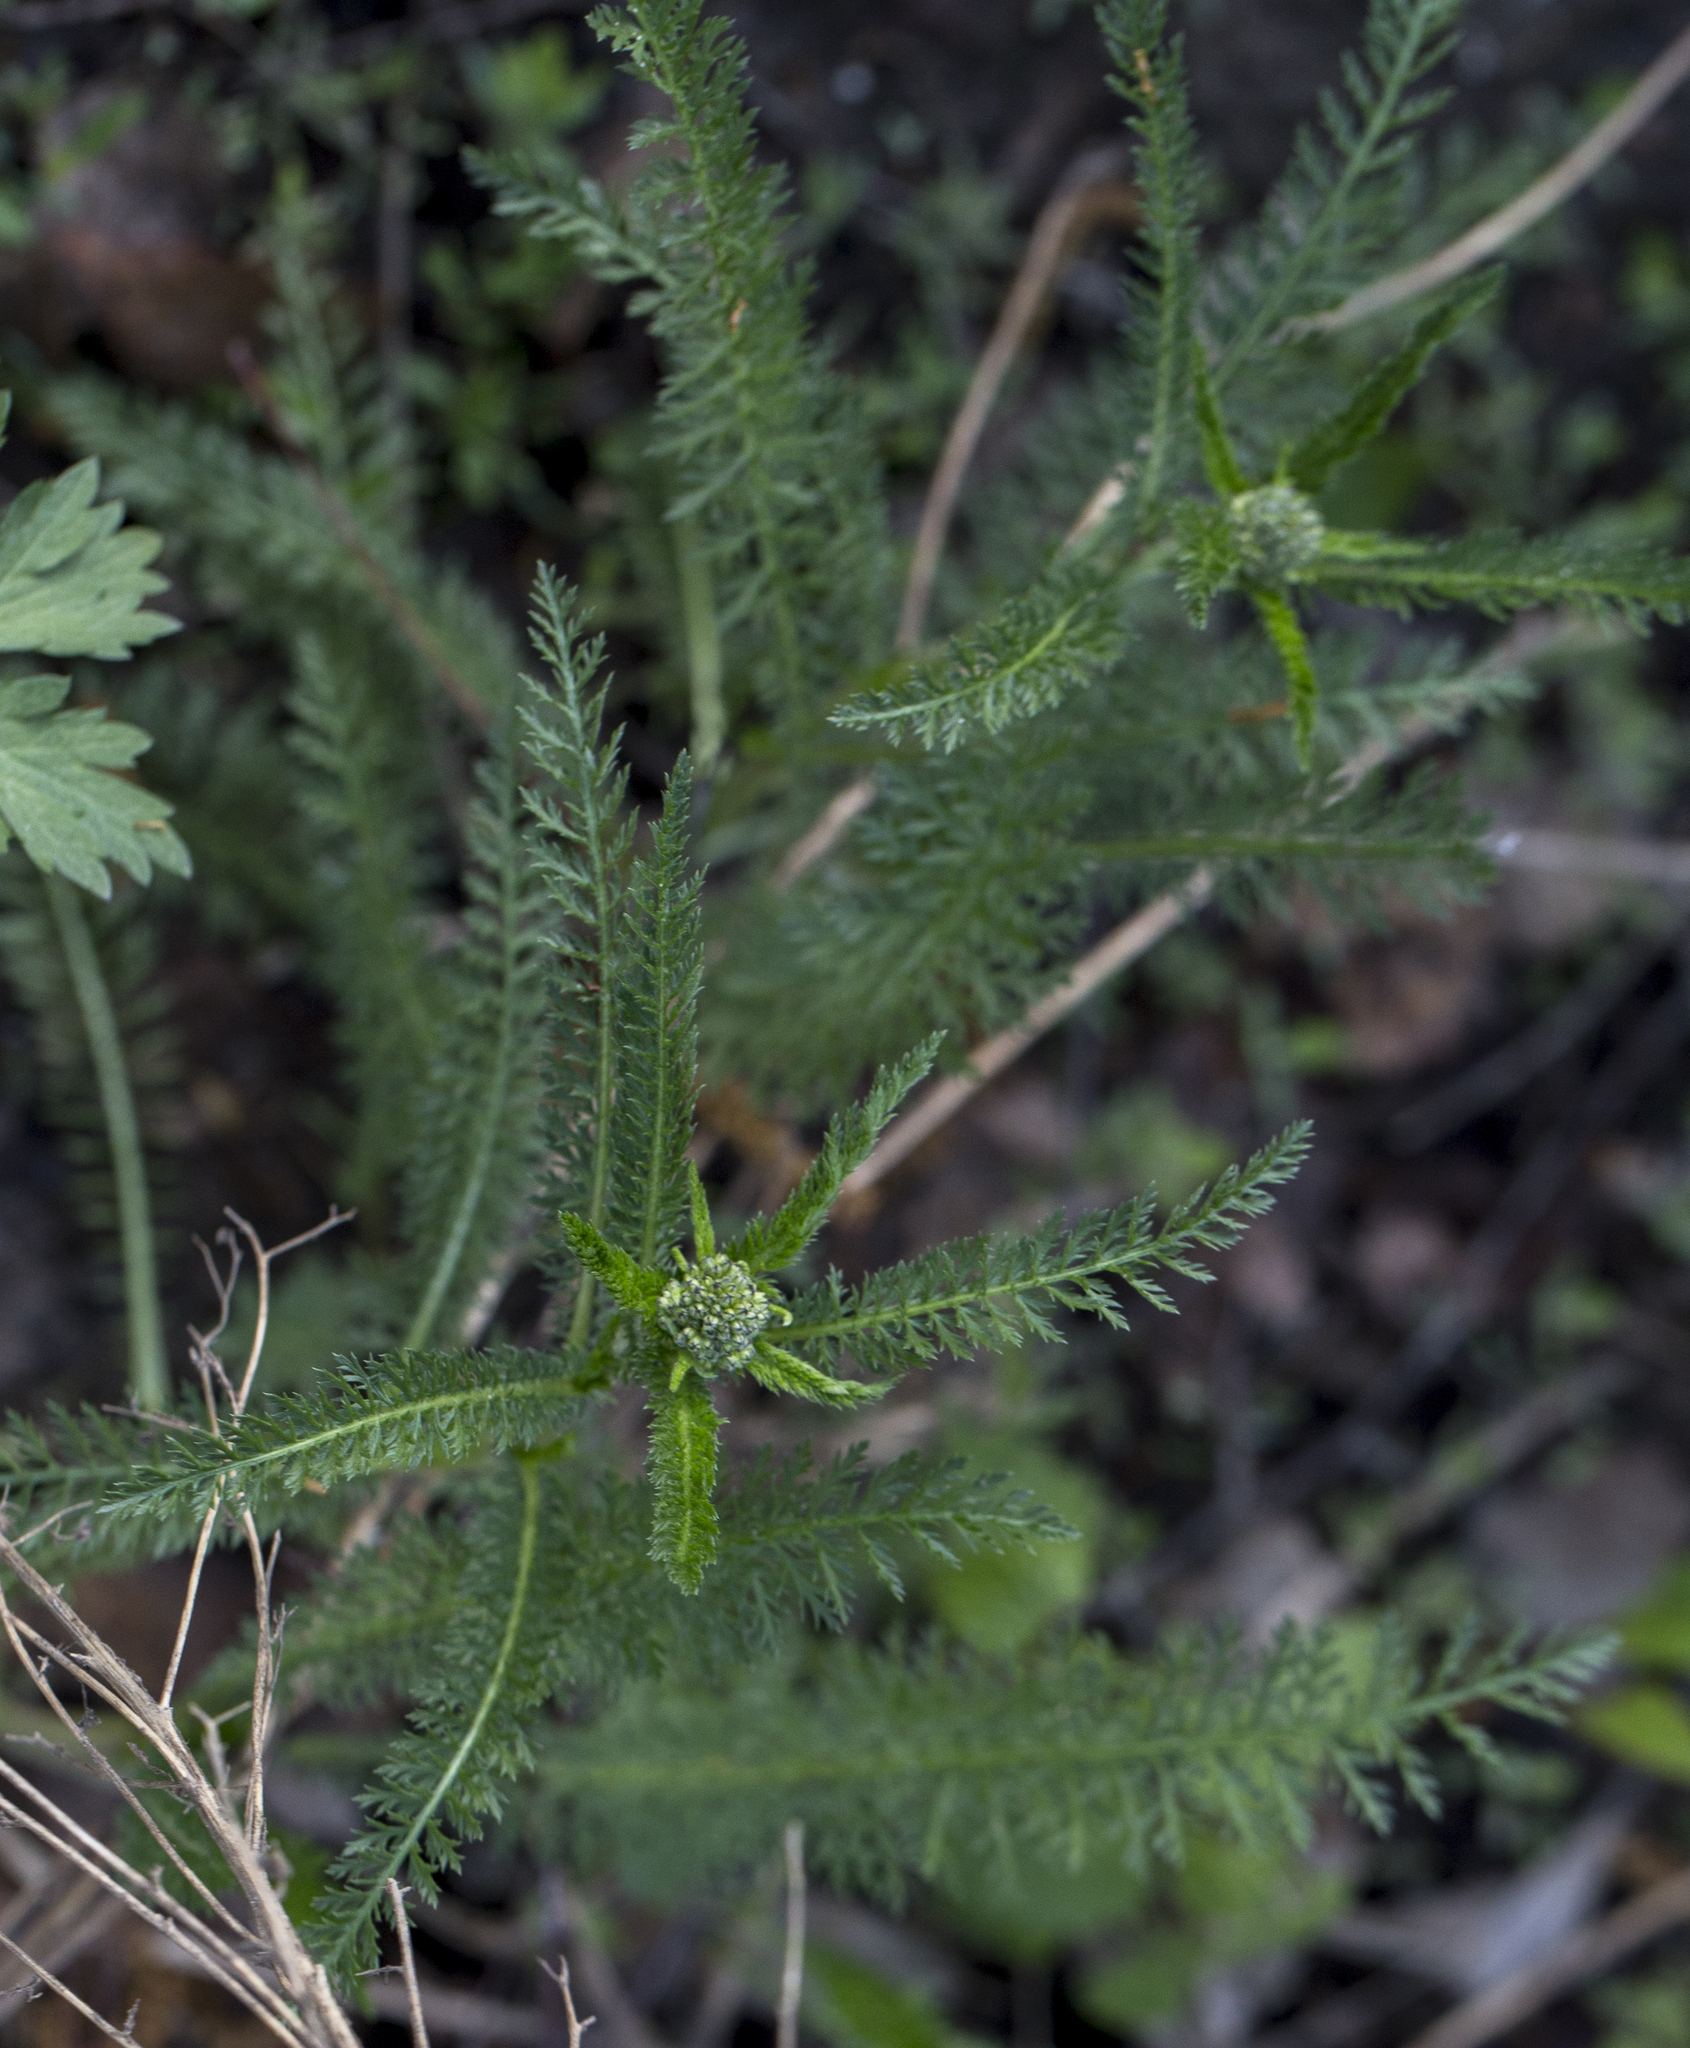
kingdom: Plantae
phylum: Tracheophyta
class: Magnoliopsida
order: Asterales
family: Asteraceae
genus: Achillea
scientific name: Achillea millefolium
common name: Yarrow
